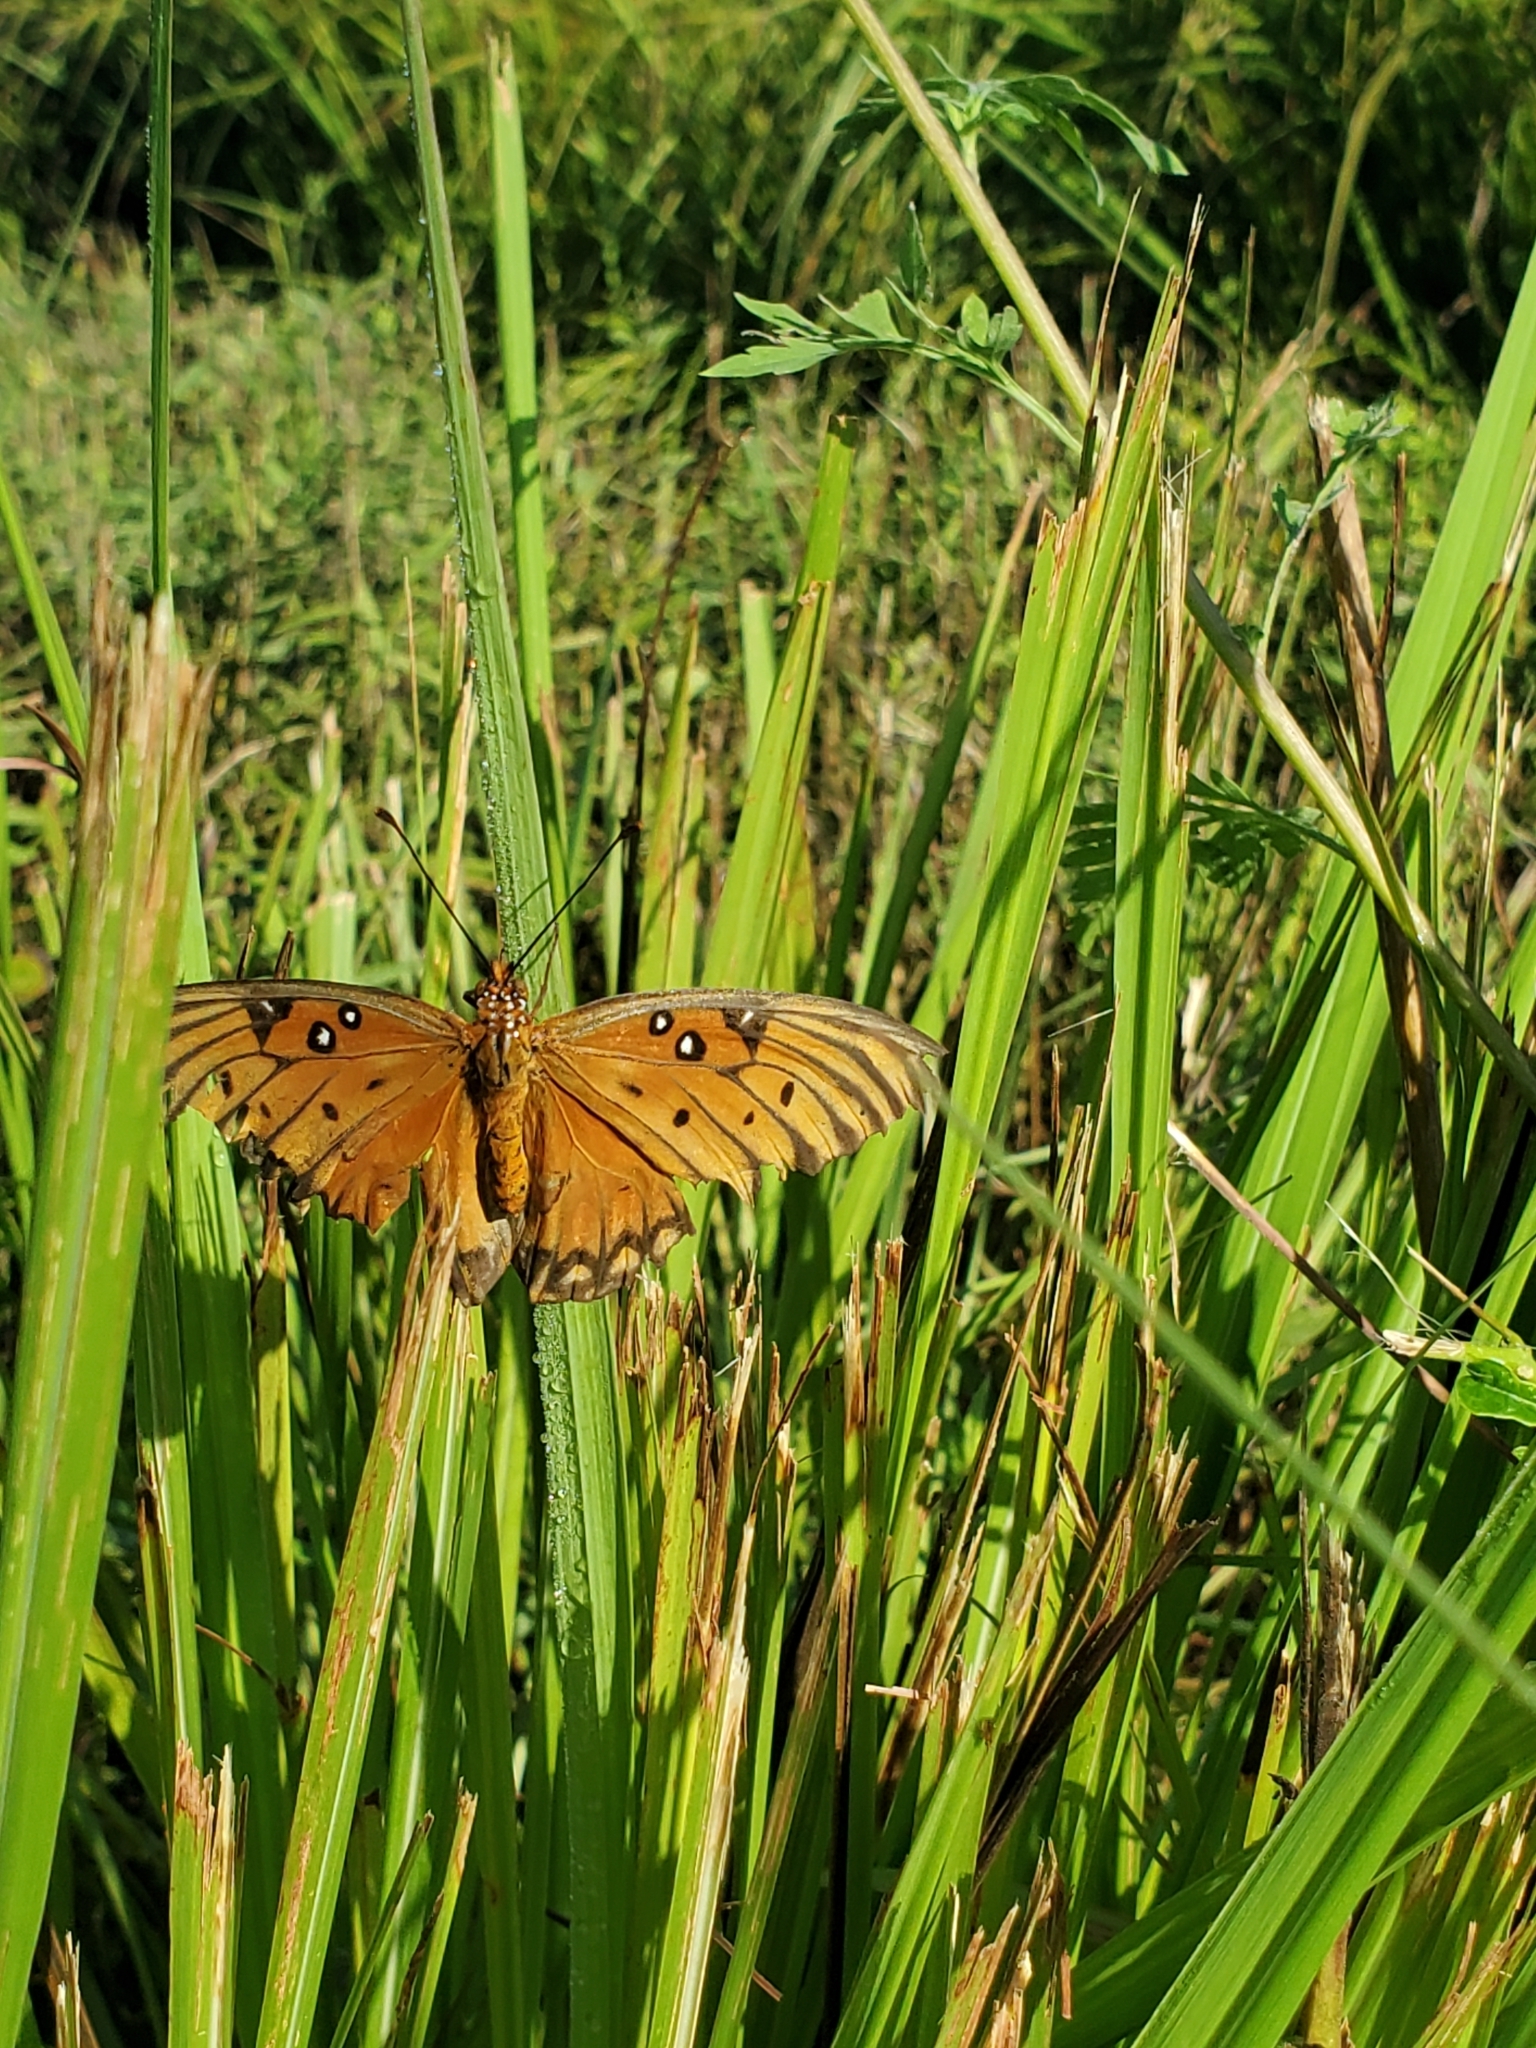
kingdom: Animalia
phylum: Arthropoda
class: Insecta
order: Lepidoptera
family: Nymphalidae
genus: Dione
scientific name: Dione vanillae
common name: Gulf fritillary
